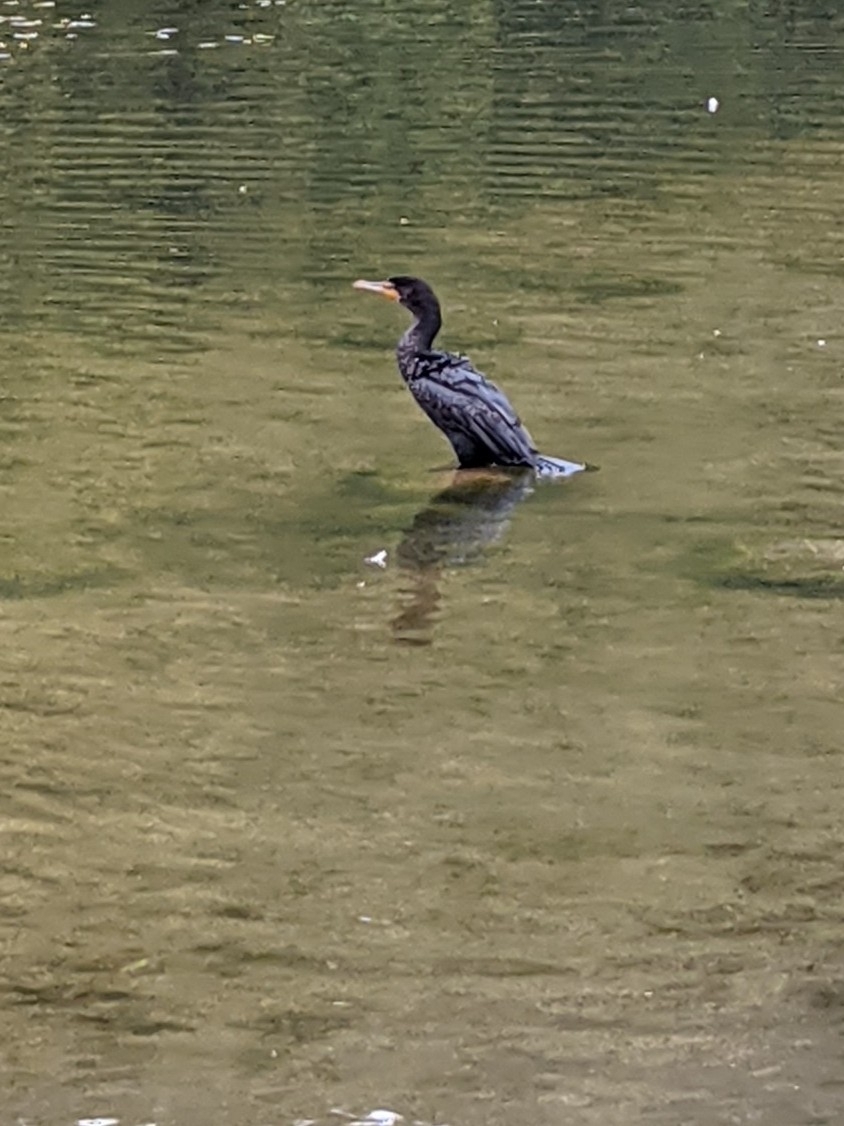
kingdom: Animalia
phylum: Chordata
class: Aves
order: Suliformes
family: Phalacrocoracidae
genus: Phalacrocorax
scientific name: Phalacrocorax auritus
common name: Double-crested cormorant
